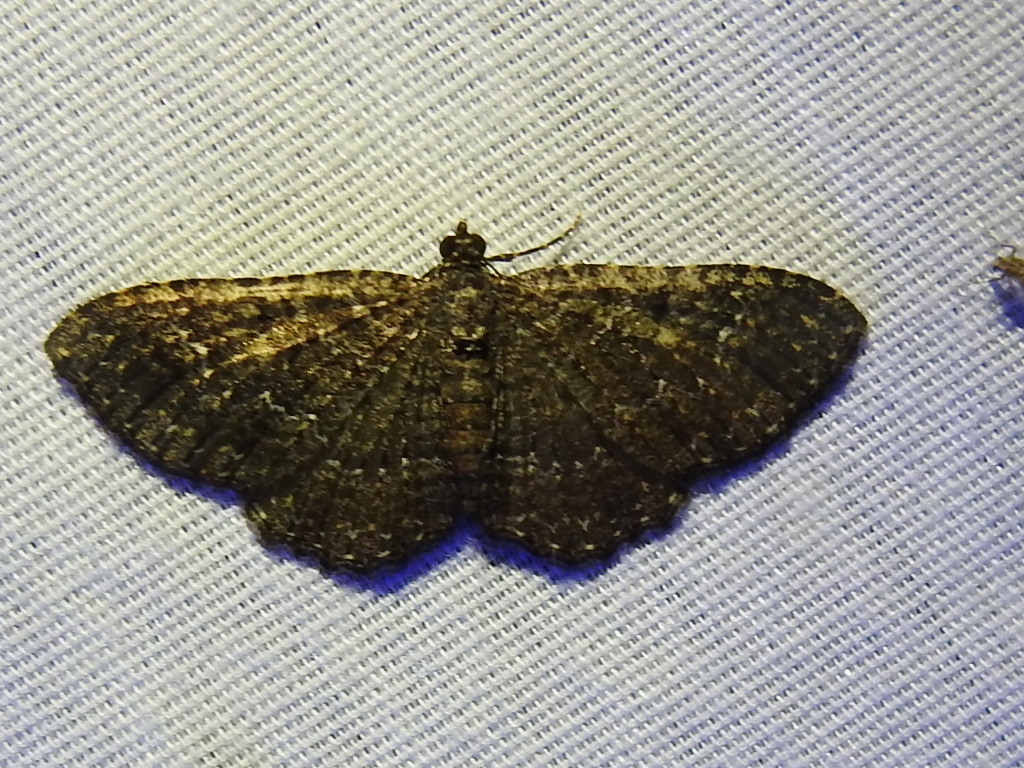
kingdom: Animalia
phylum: Arthropoda
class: Insecta
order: Lepidoptera
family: Geometridae
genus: Disclisioprocta
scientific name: Disclisioprocta stellata
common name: Somber carpet
